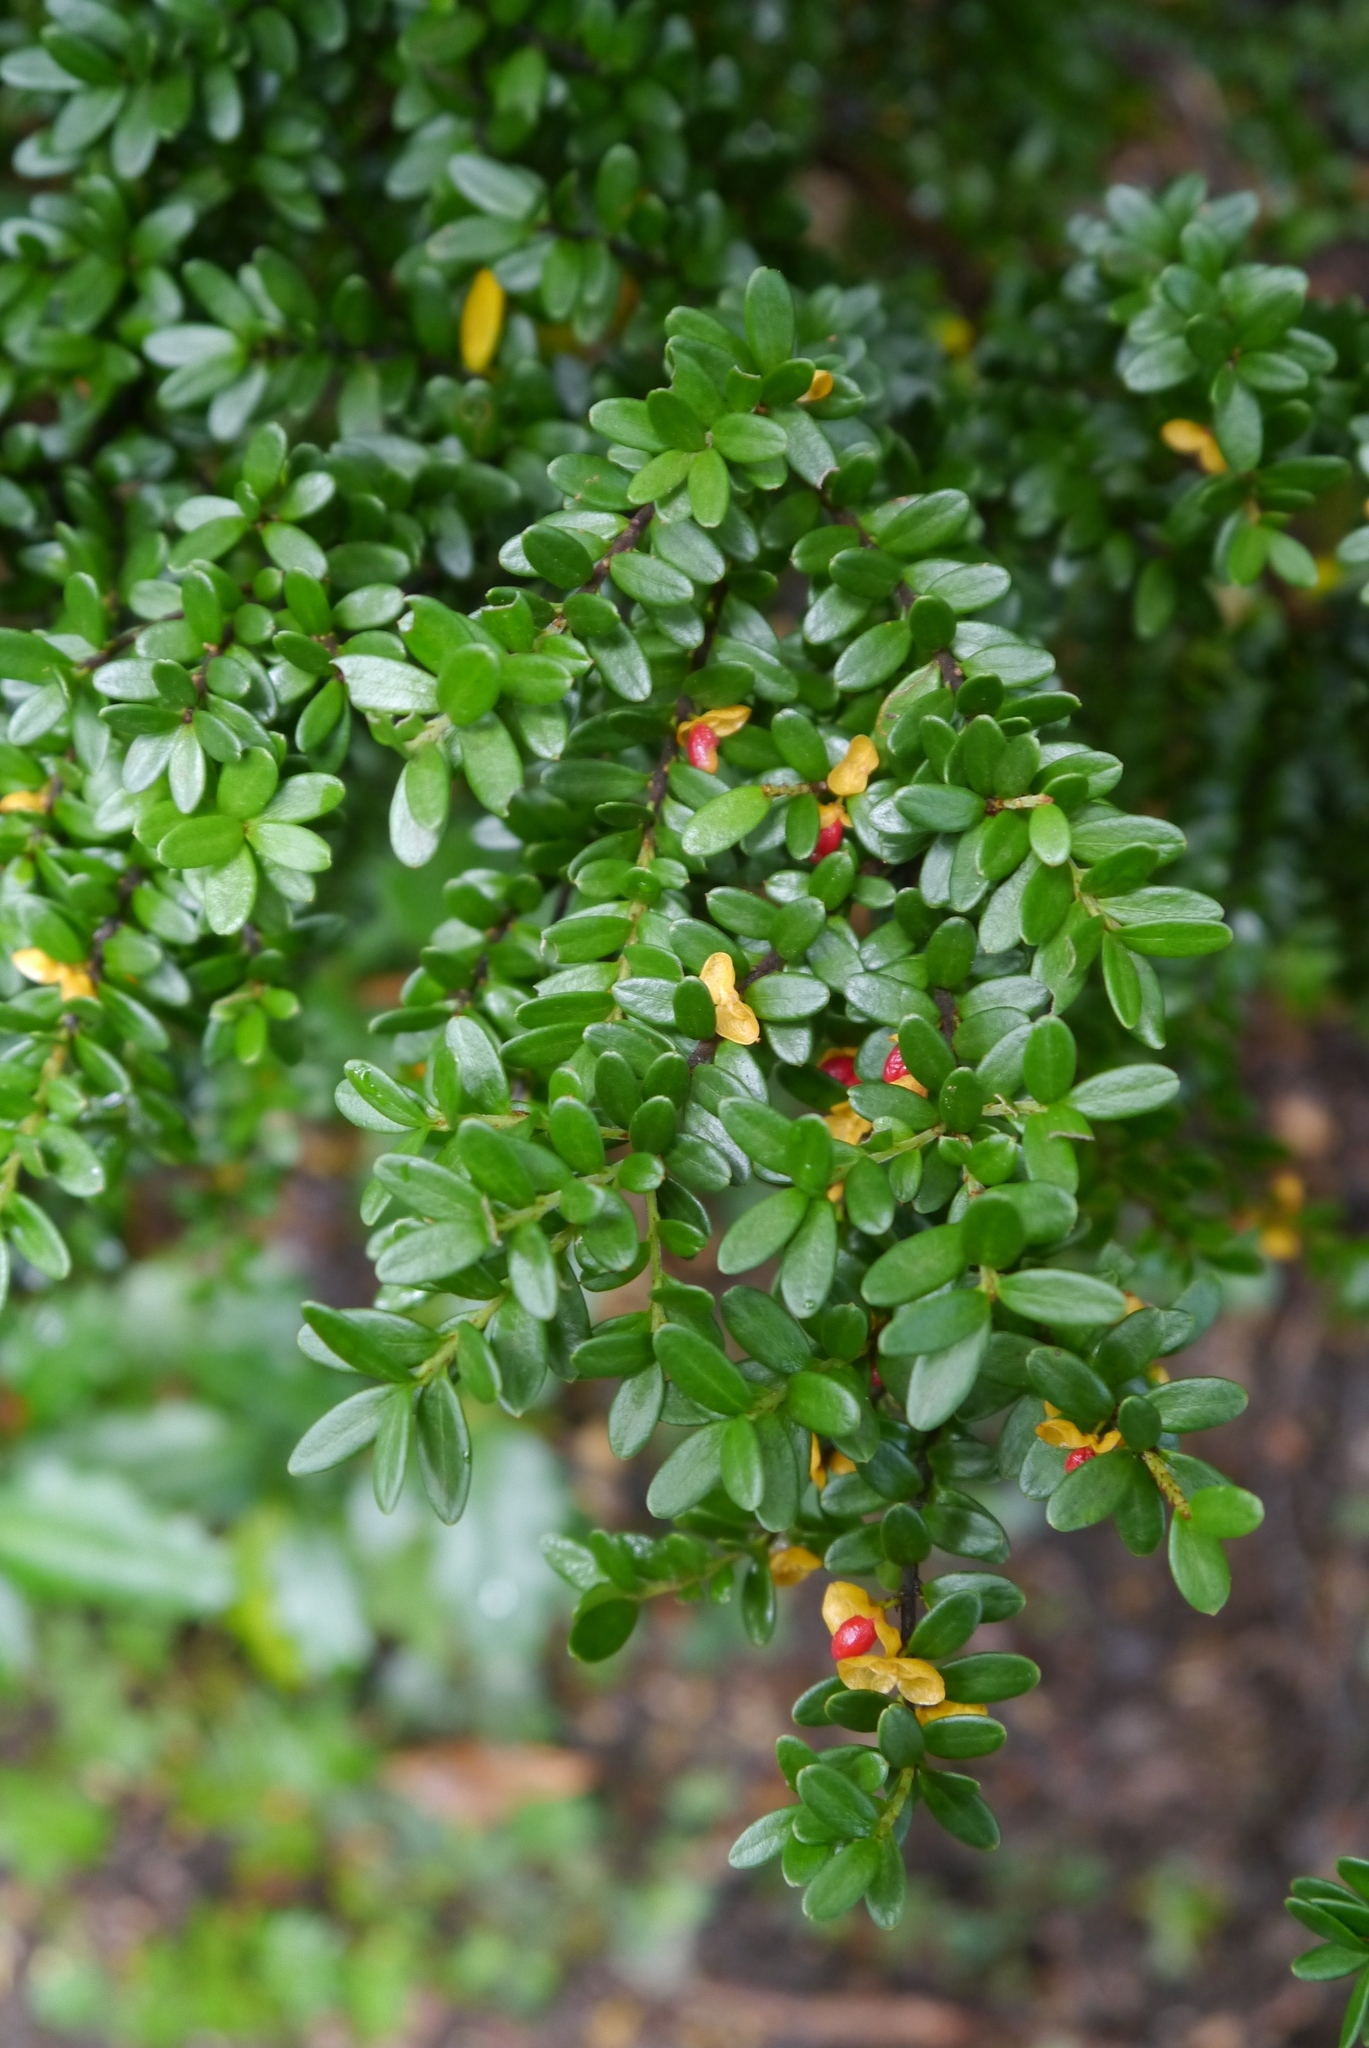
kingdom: Plantae
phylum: Tracheophyta
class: Magnoliopsida
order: Celastrales
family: Celastraceae
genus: Maytenus
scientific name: Maytenus disticha
